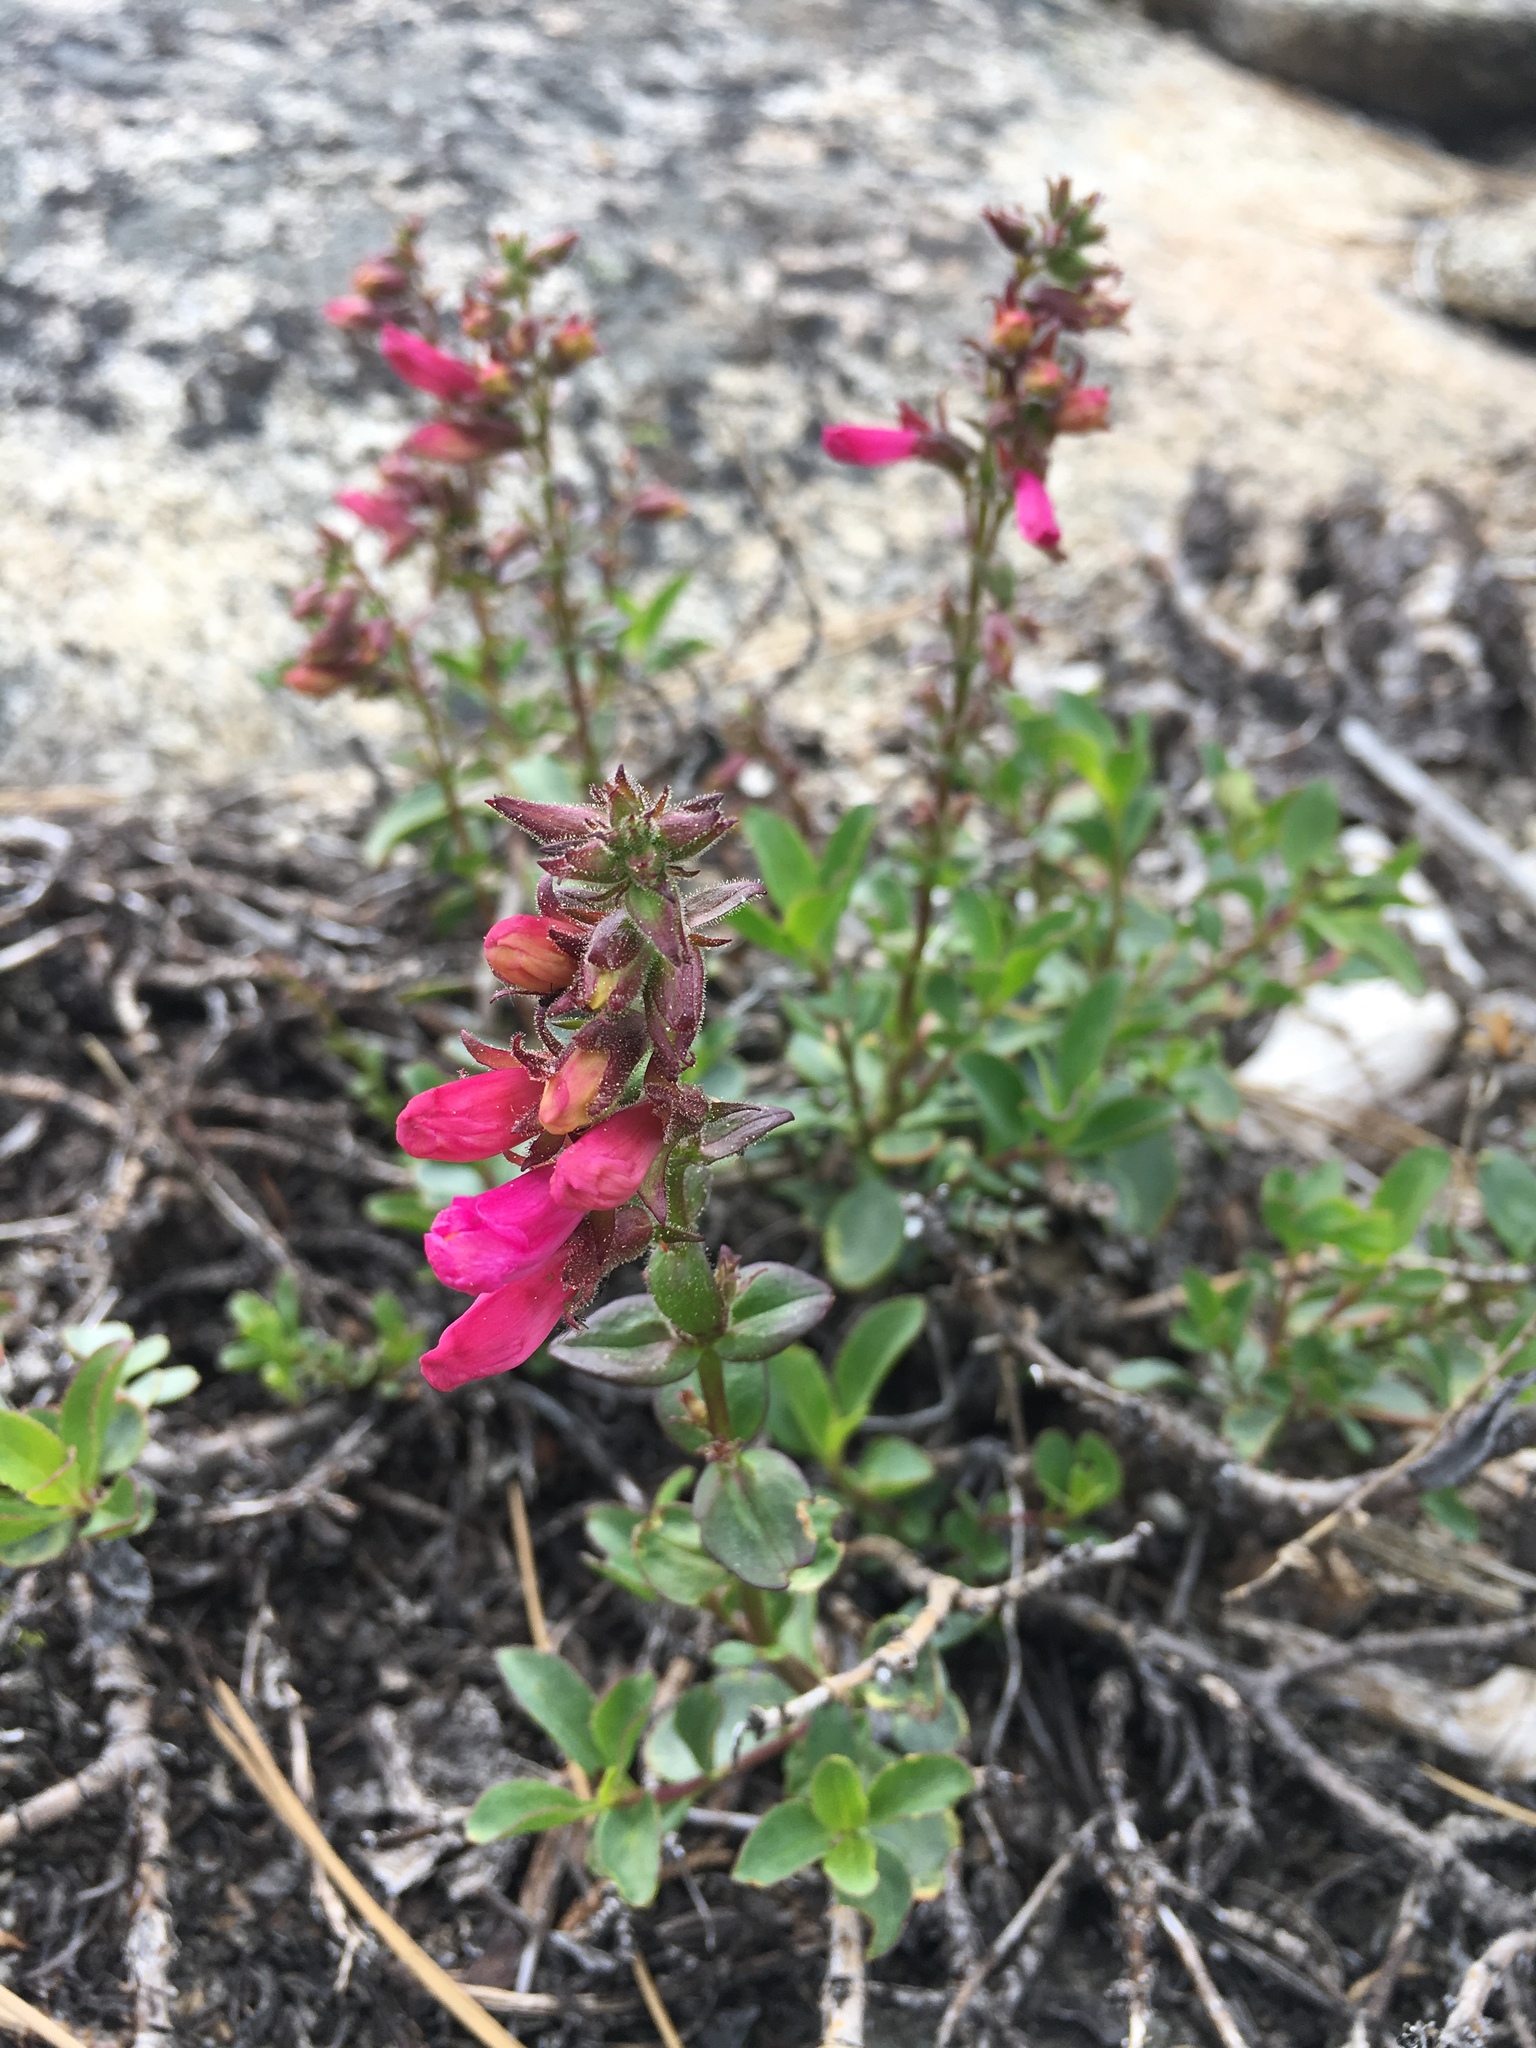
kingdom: Plantae
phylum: Tracheophyta
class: Magnoliopsida
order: Lamiales
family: Plantaginaceae
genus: Penstemon
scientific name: Penstemon newberryi
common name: Mountain-pride
